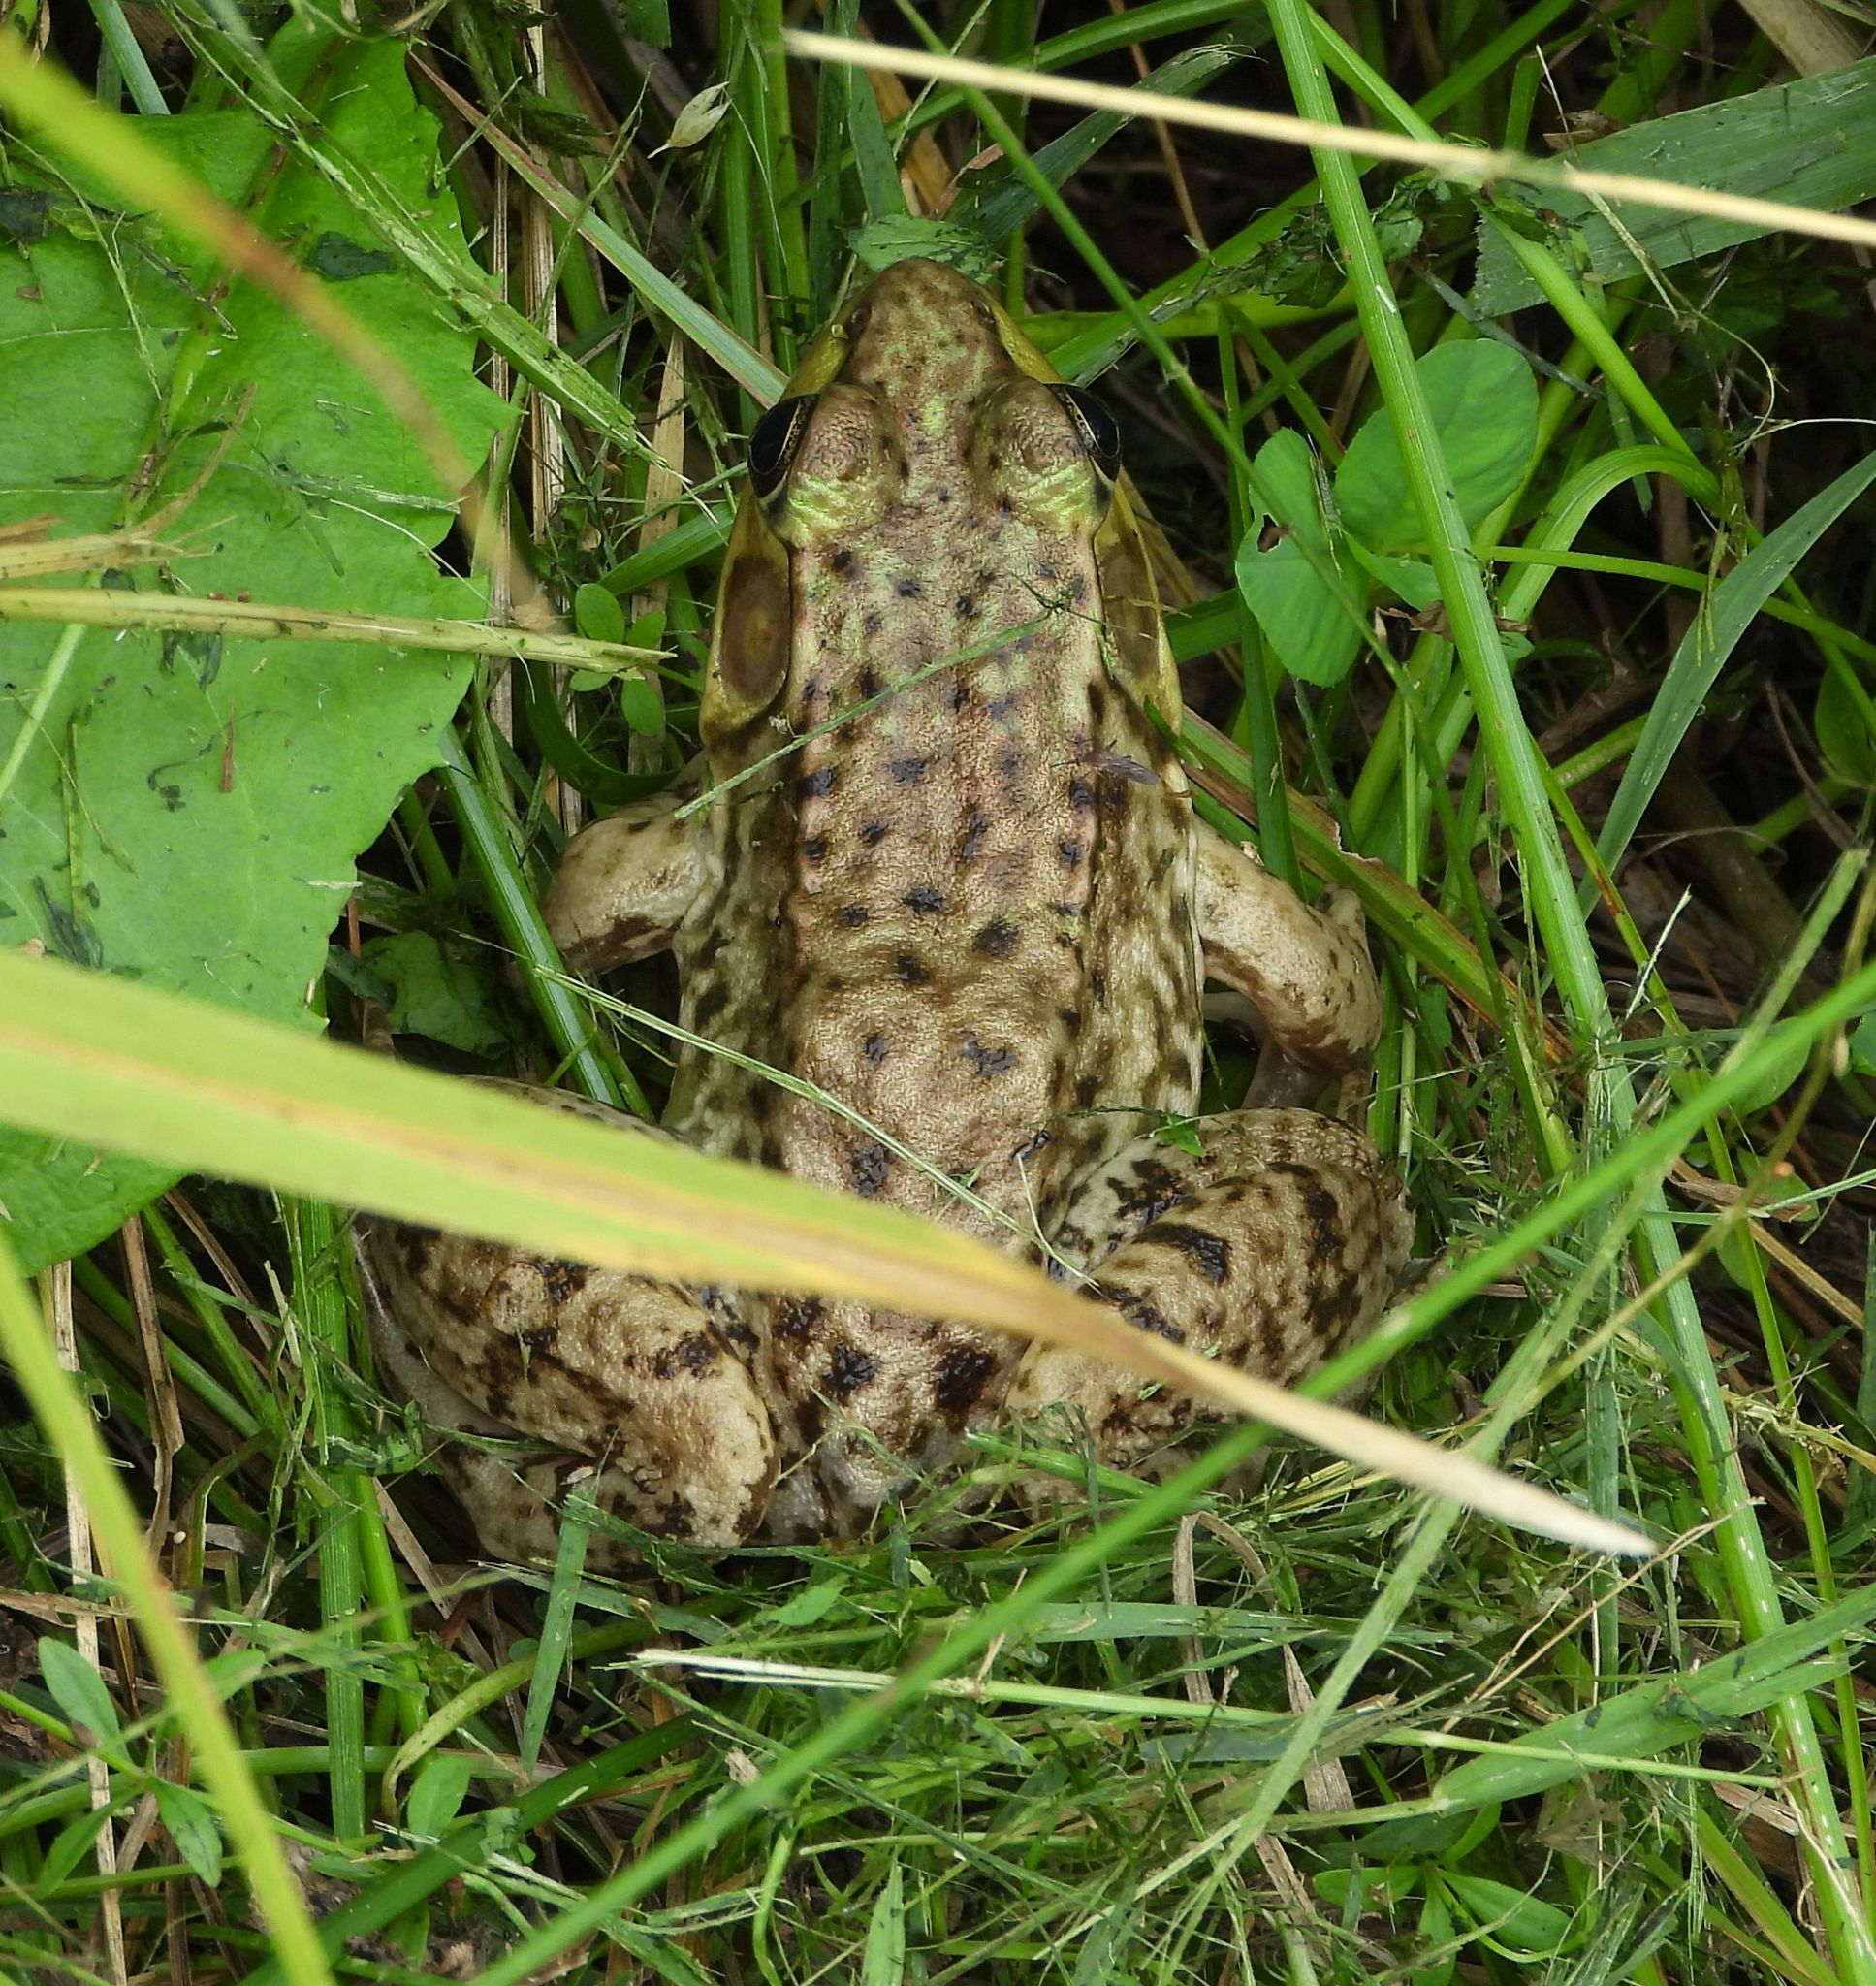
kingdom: Animalia
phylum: Chordata
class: Amphibia
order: Anura
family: Ranidae
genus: Lithobates
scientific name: Lithobates clamitans
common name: Green frog
